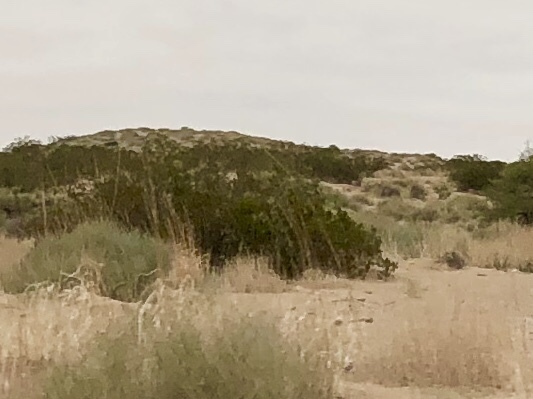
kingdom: Plantae
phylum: Tracheophyta
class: Magnoliopsida
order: Zygophyllales
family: Zygophyllaceae
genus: Larrea
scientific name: Larrea tridentata
